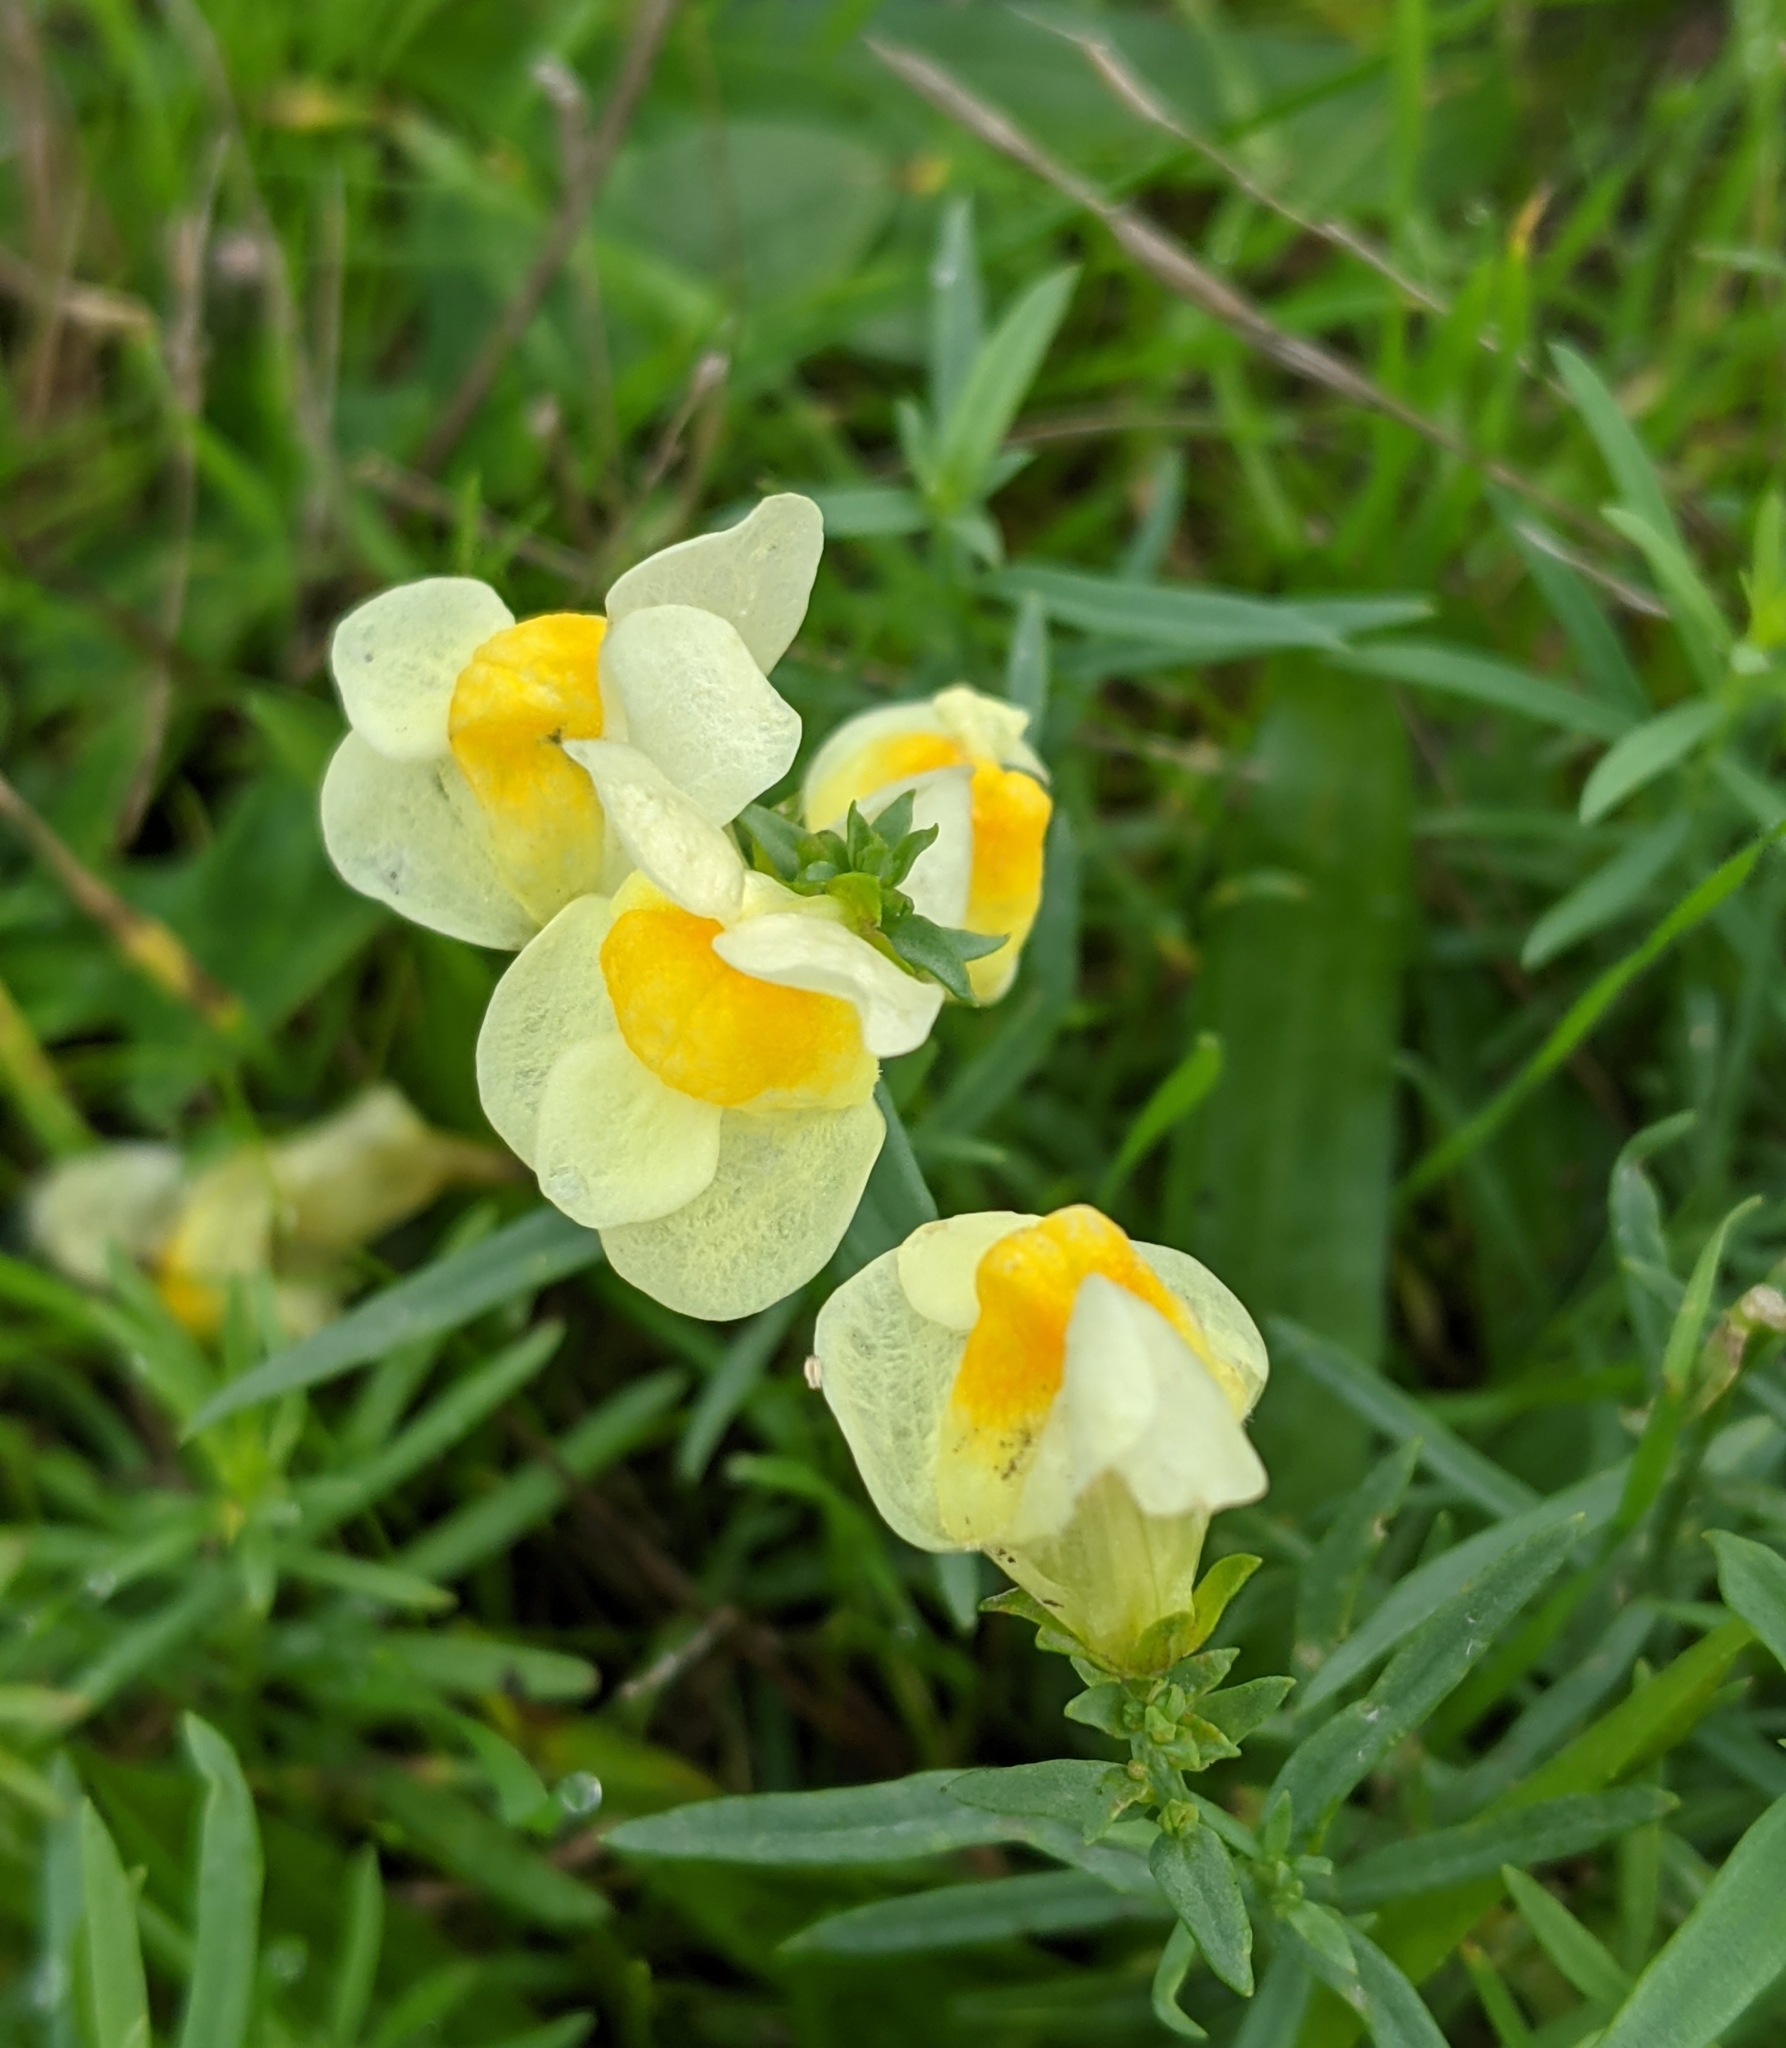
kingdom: Plantae
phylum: Tracheophyta
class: Magnoliopsida
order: Lamiales
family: Plantaginaceae
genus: Linaria
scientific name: Linaria vulgaris
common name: Butter and eggs
